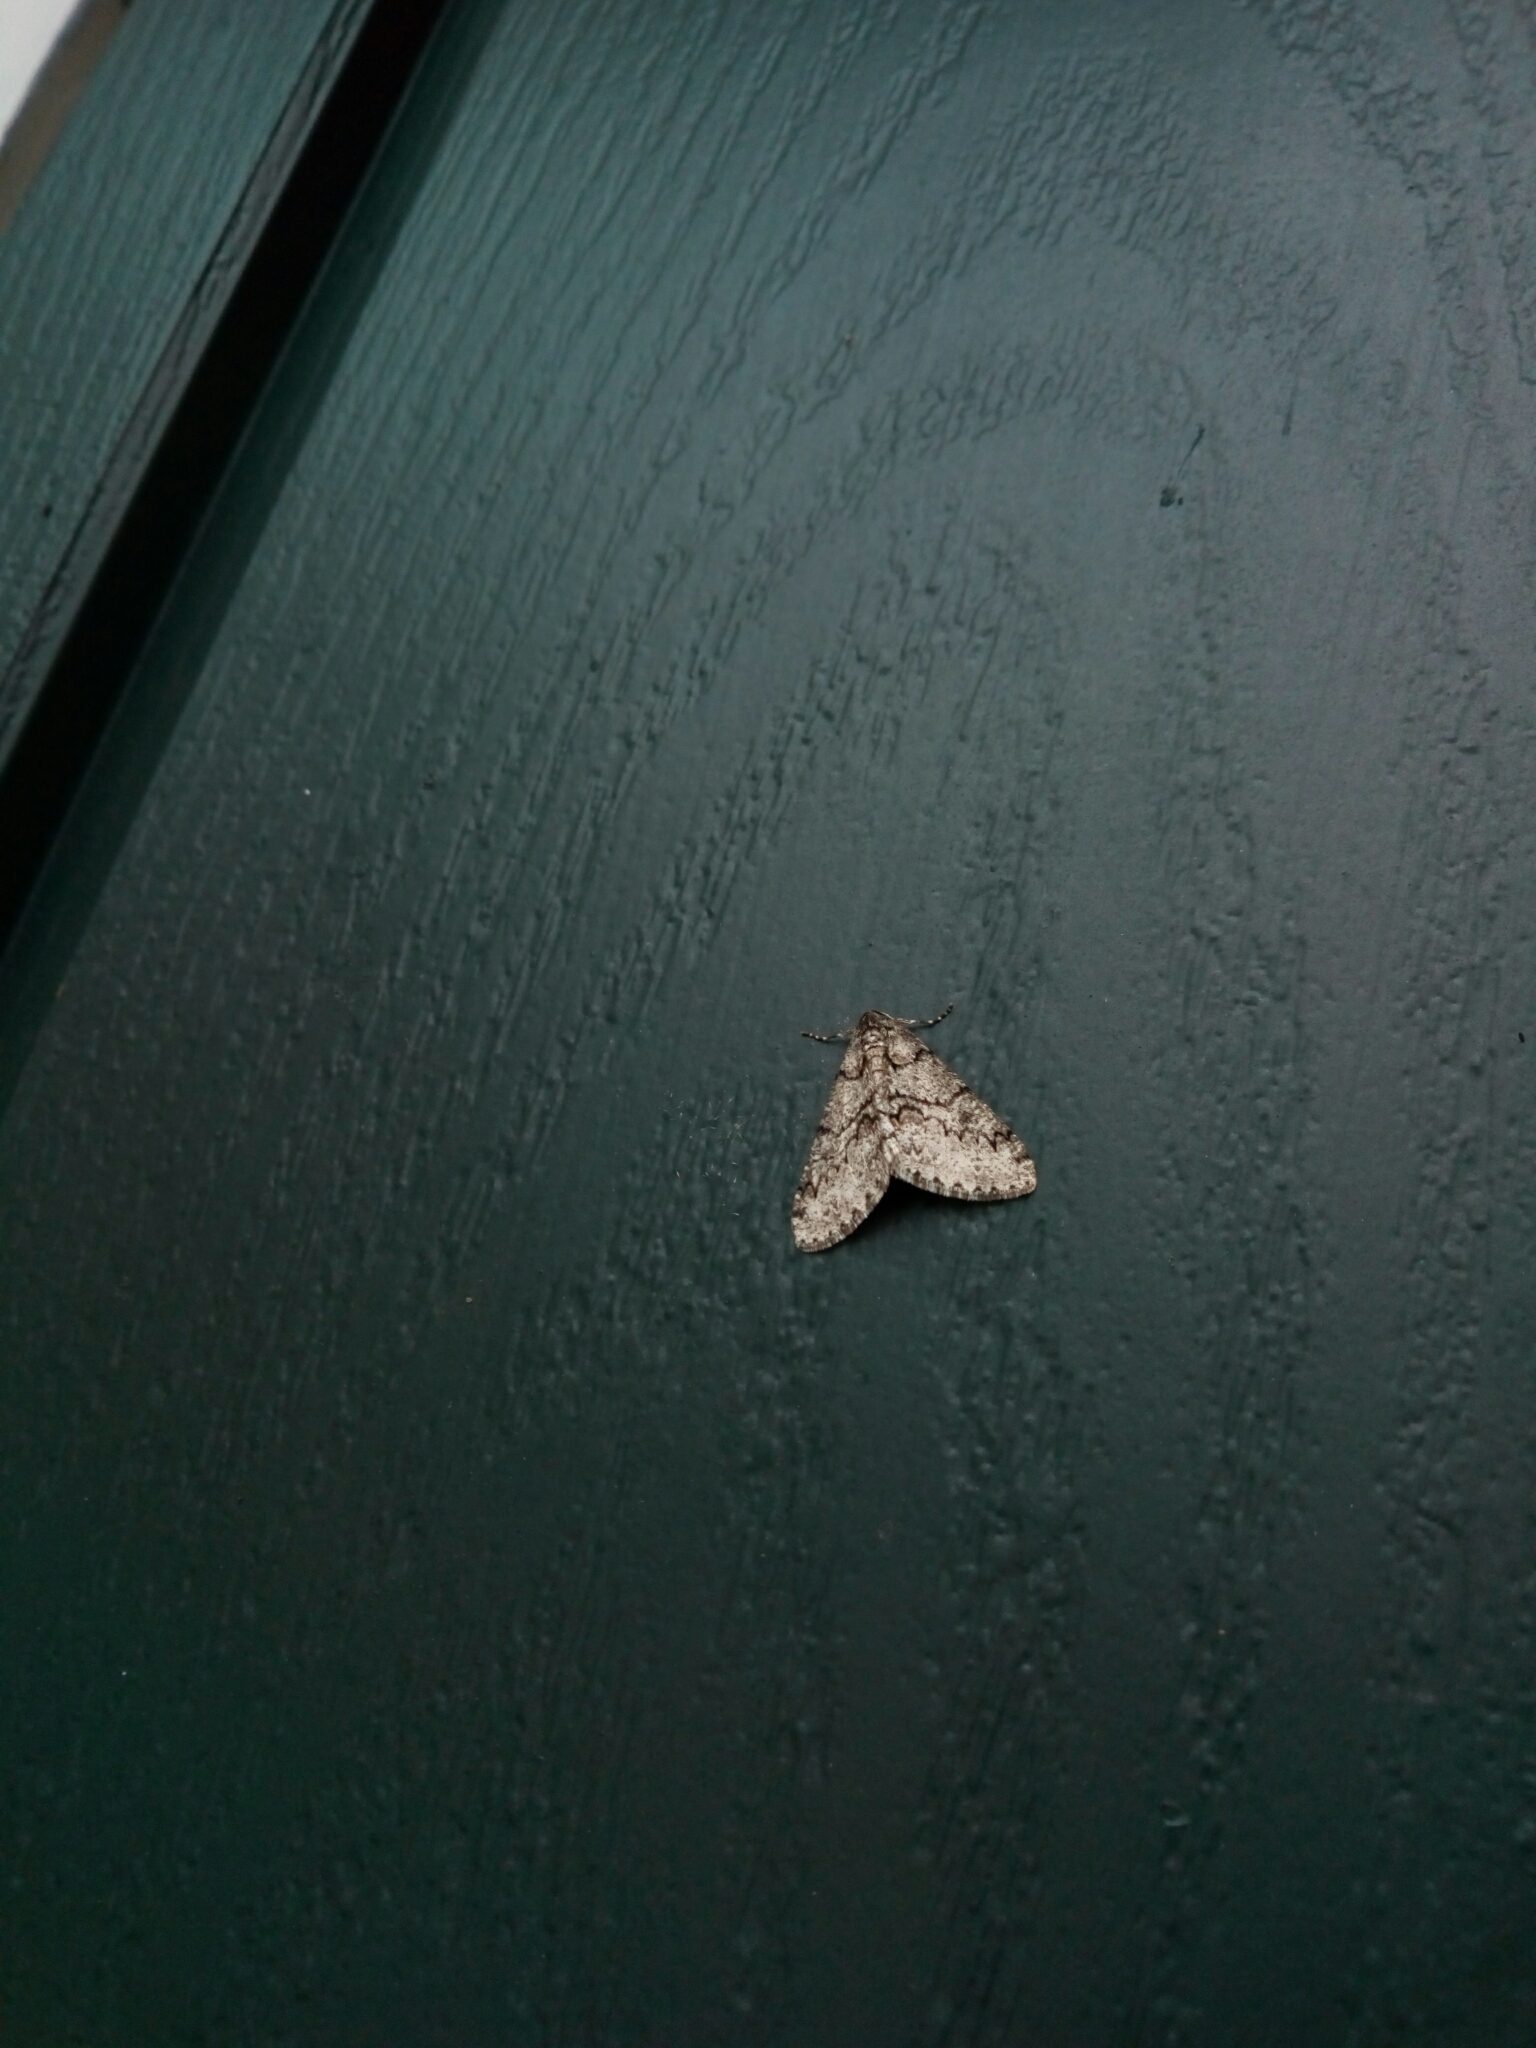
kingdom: Animalia
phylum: Arthropoda
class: Insecta
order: Lepidoptera
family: Geometridae
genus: Phigalia
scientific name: Phigalia denticulata
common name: Toothed phigalia
